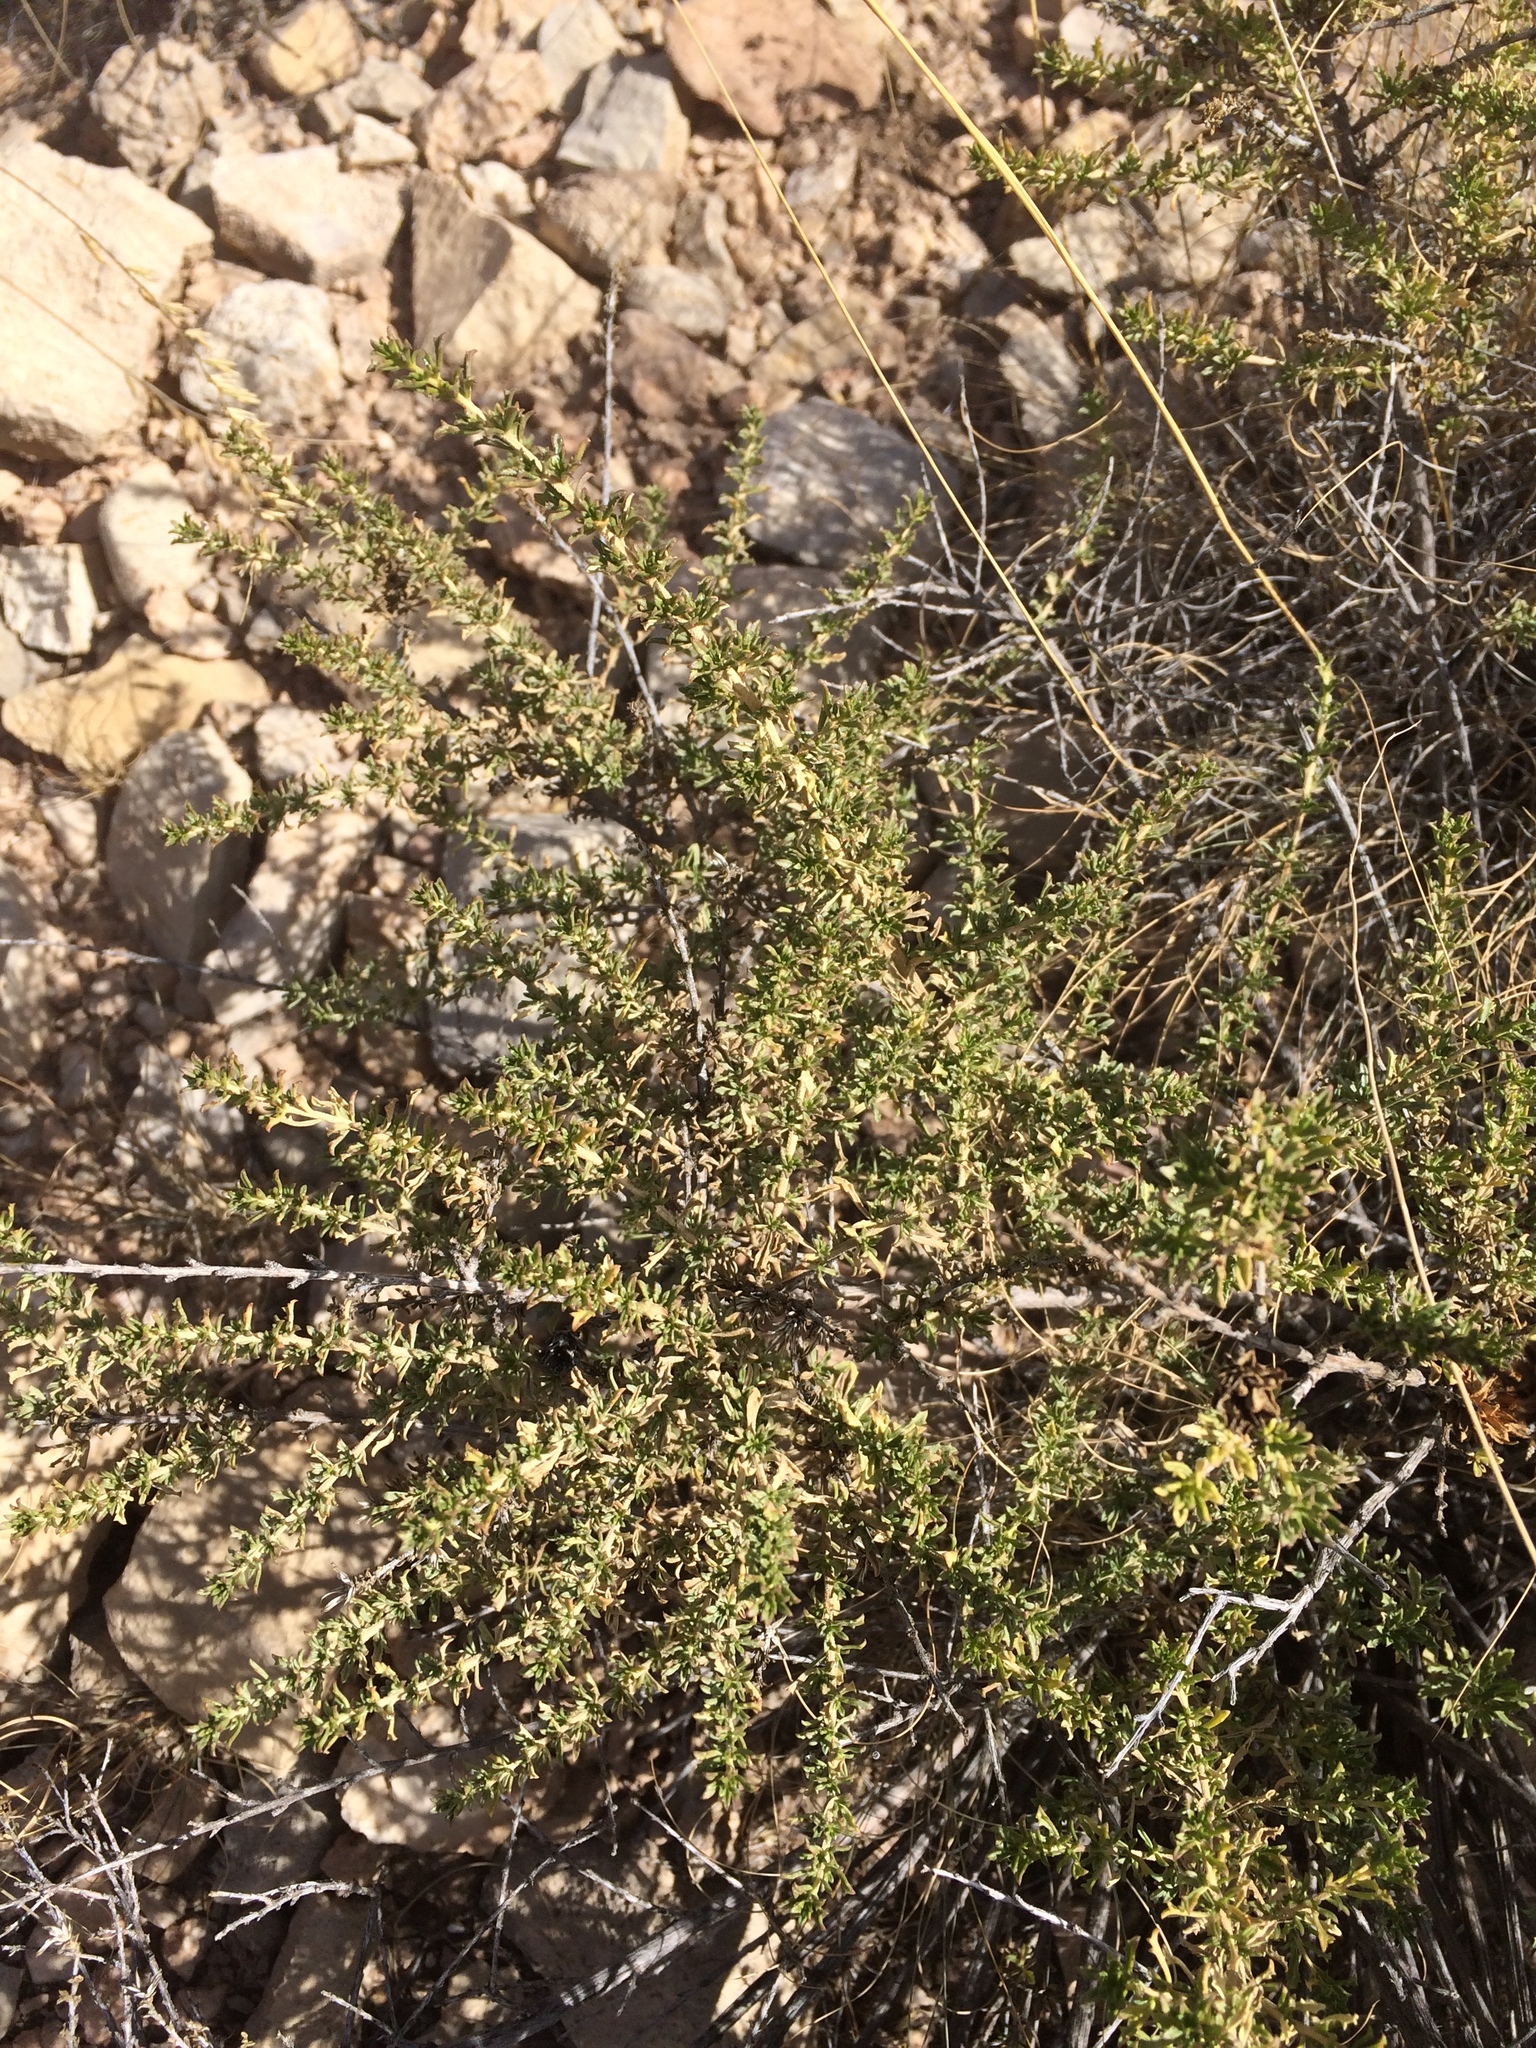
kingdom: Plantae
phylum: Tracheophyta
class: Magnoliopsida
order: Asterales
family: Asteraceae
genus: Baccharis
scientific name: Baccharis pteronioides
